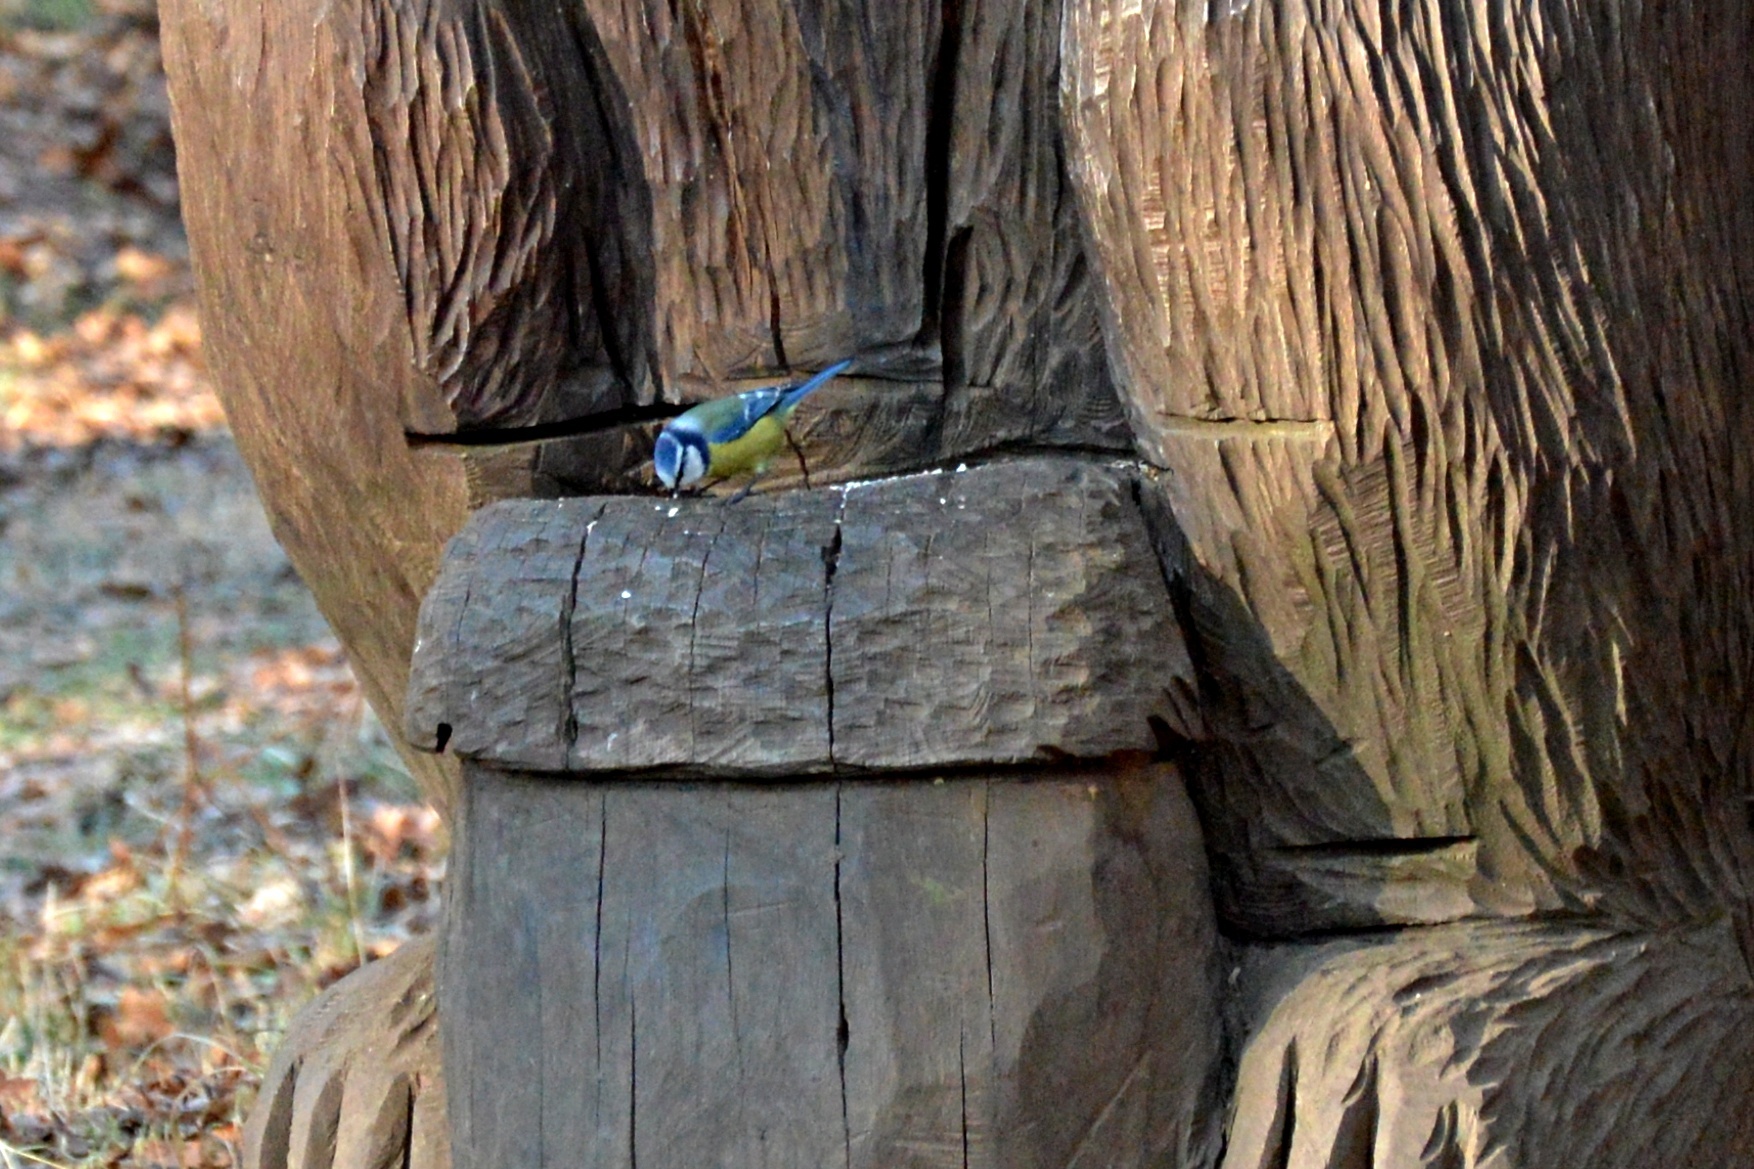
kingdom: Animalia
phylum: Chordata
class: Aves
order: Passeriformes
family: Paridae
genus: Cyanistes
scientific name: Cyanistes caeruleus
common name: Eurasian blue tit
